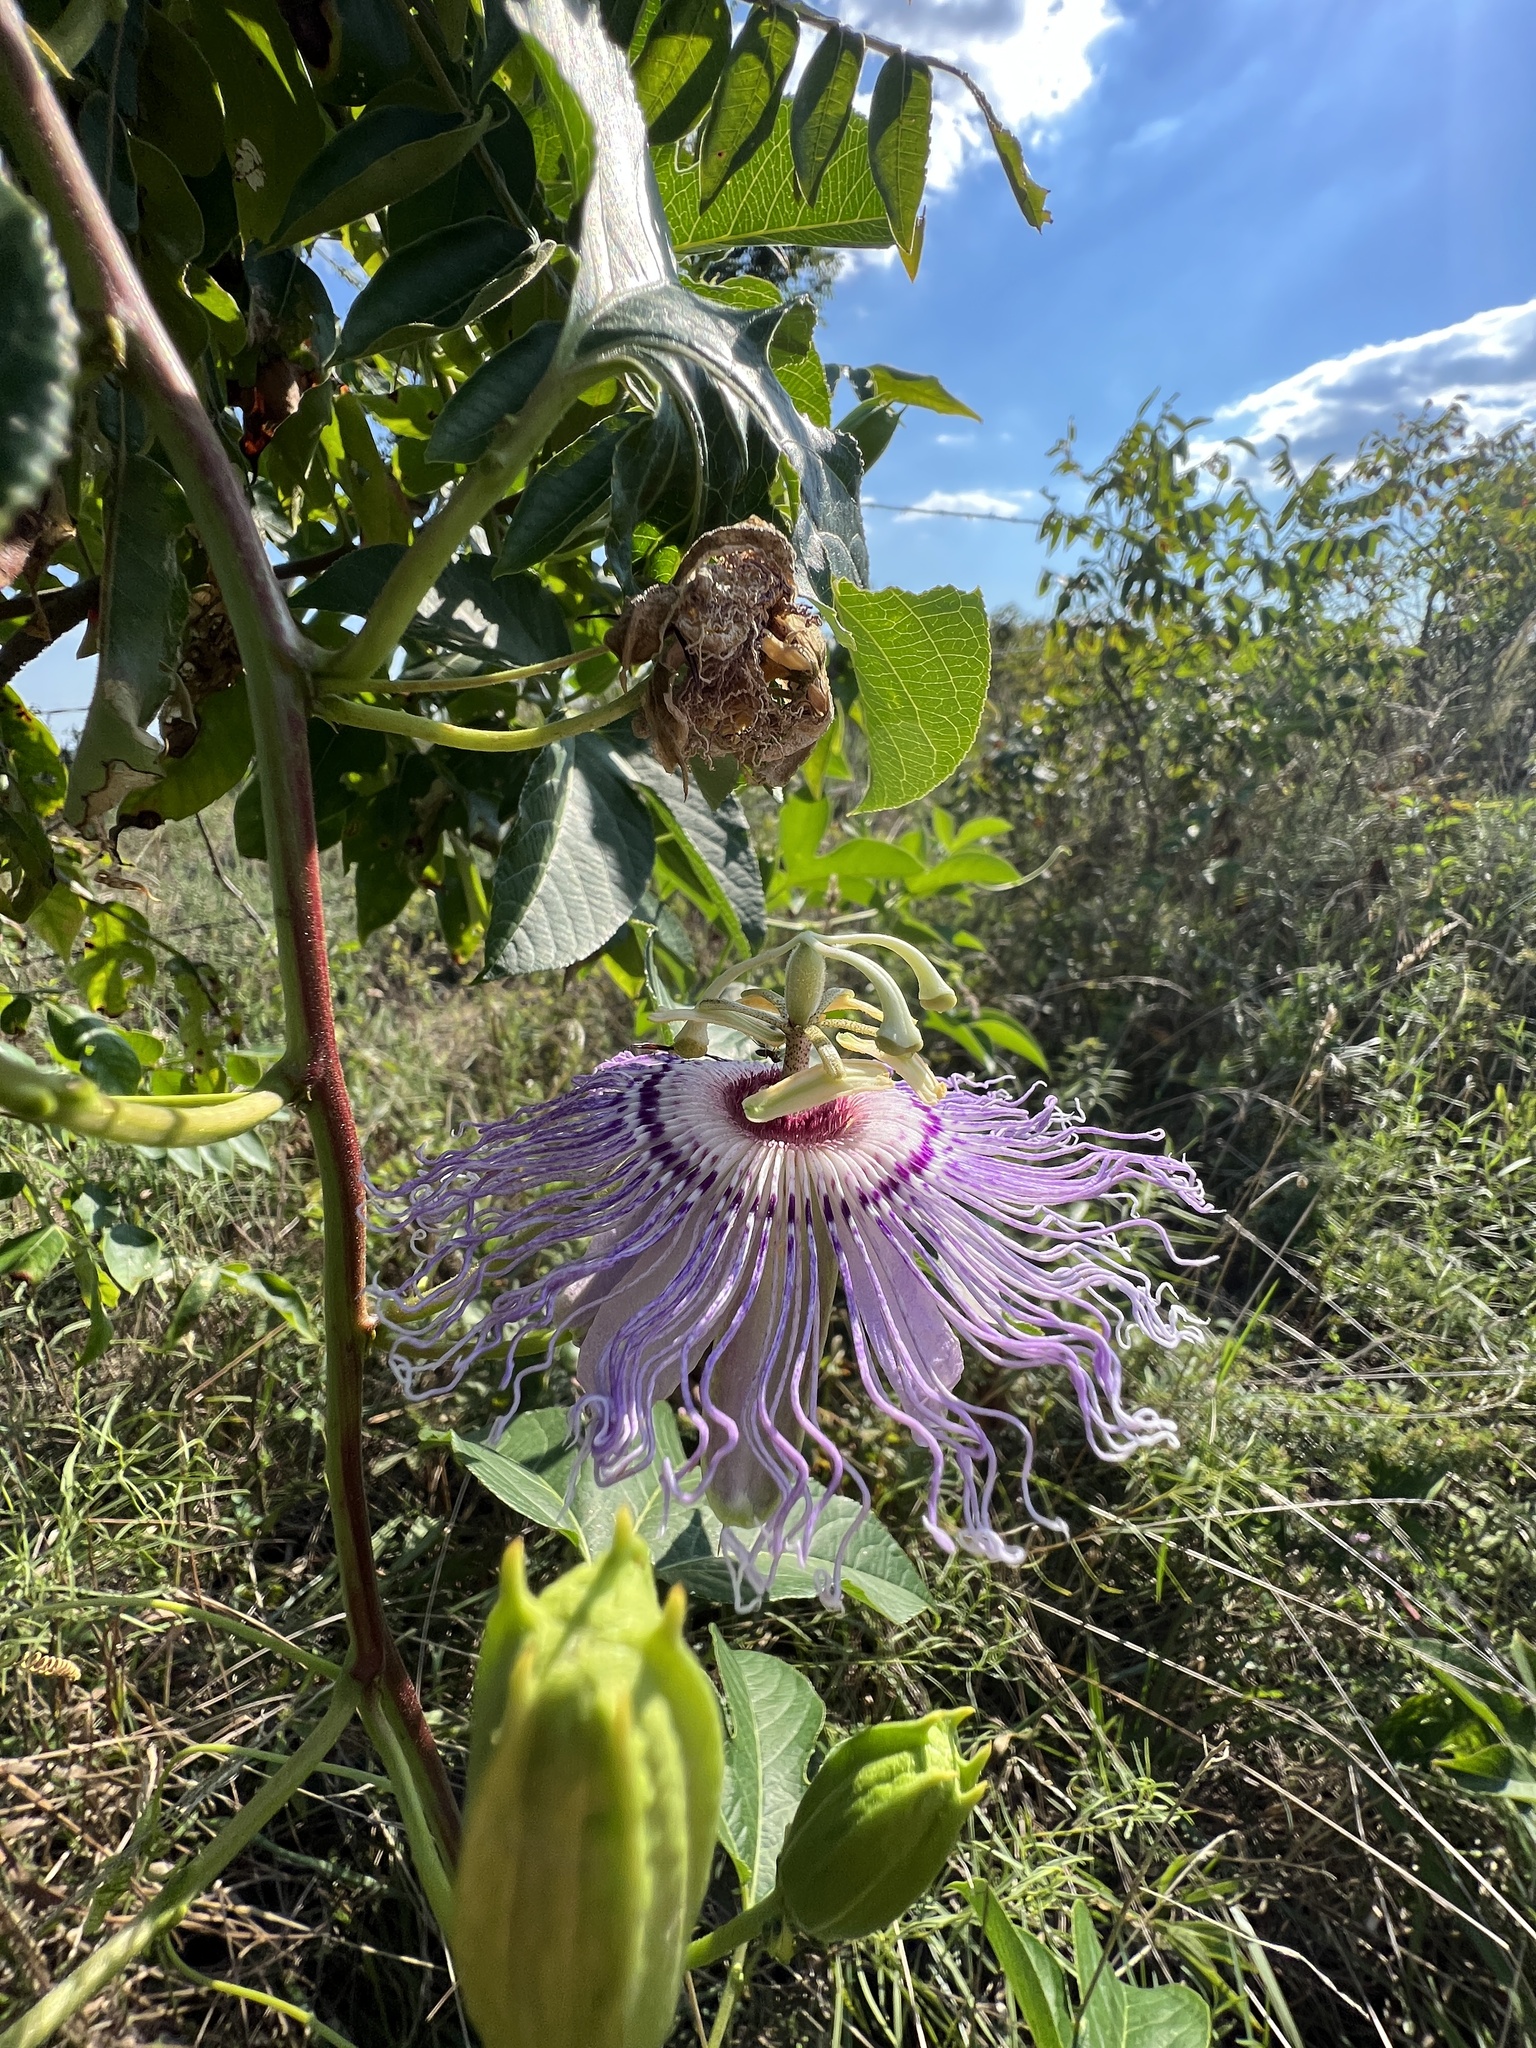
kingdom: Plantae
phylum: Tracheophyta
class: Magnoliopsida
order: Malpighiales
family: Passifloraceae
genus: Passiflora
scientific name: Passiflora incarnata
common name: Apricot-vine
